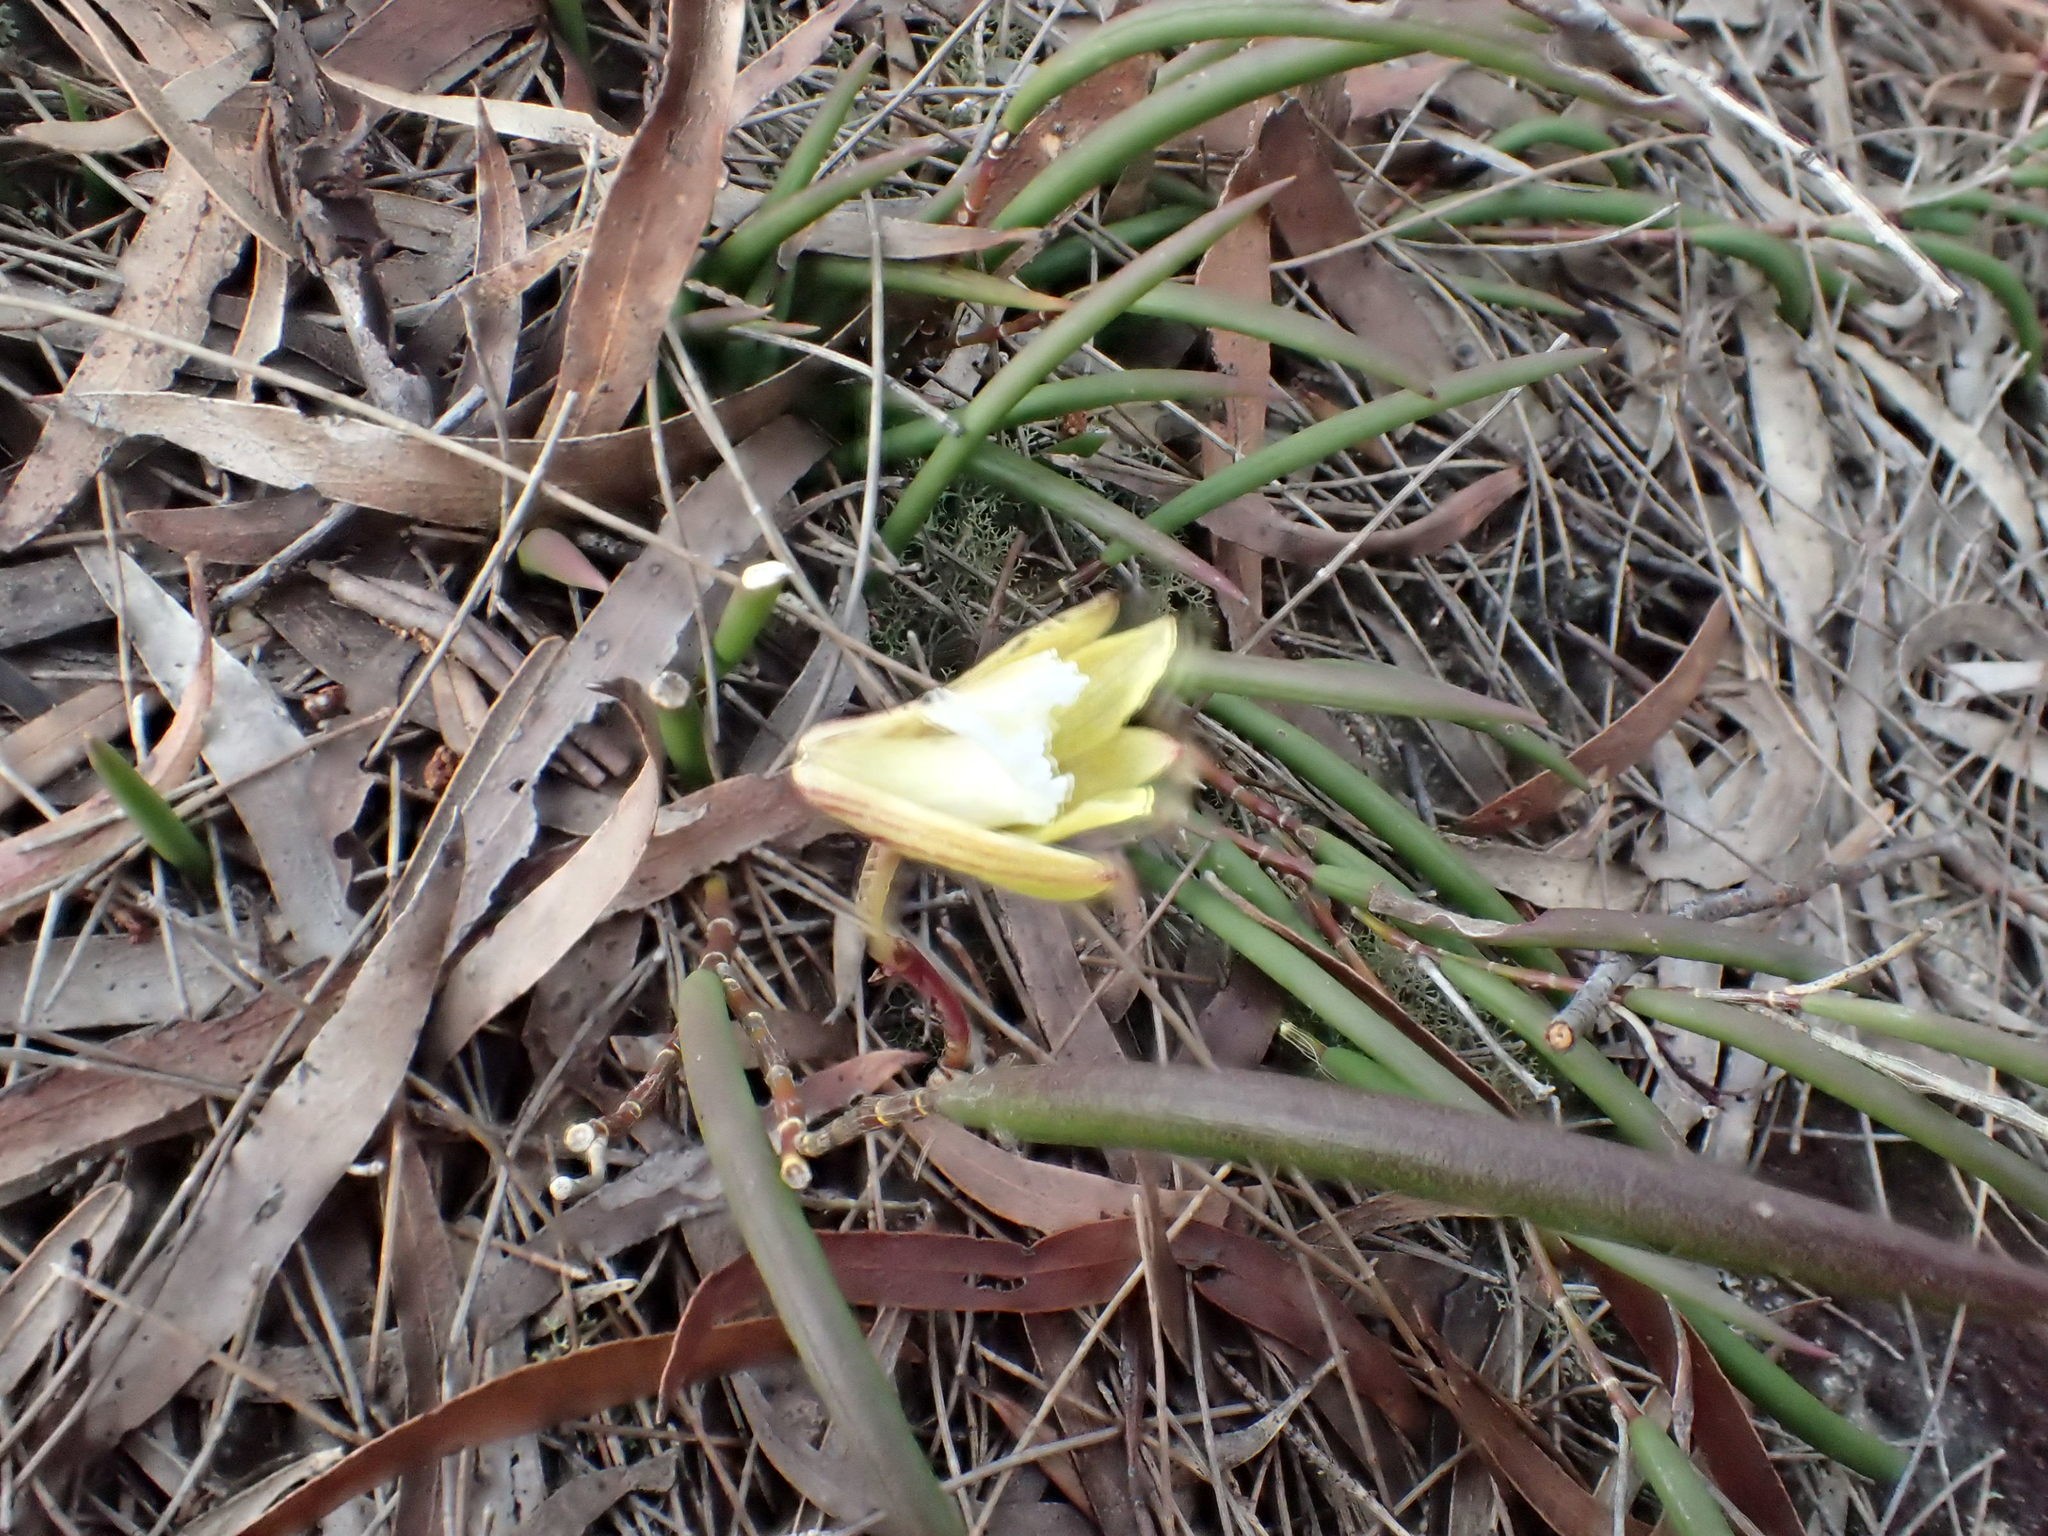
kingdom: Plantae
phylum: Tracheophyta
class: Liliopsida
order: Asparagales
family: Orchidaceae
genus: Dendrobium
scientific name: Dendrobium striolatum
